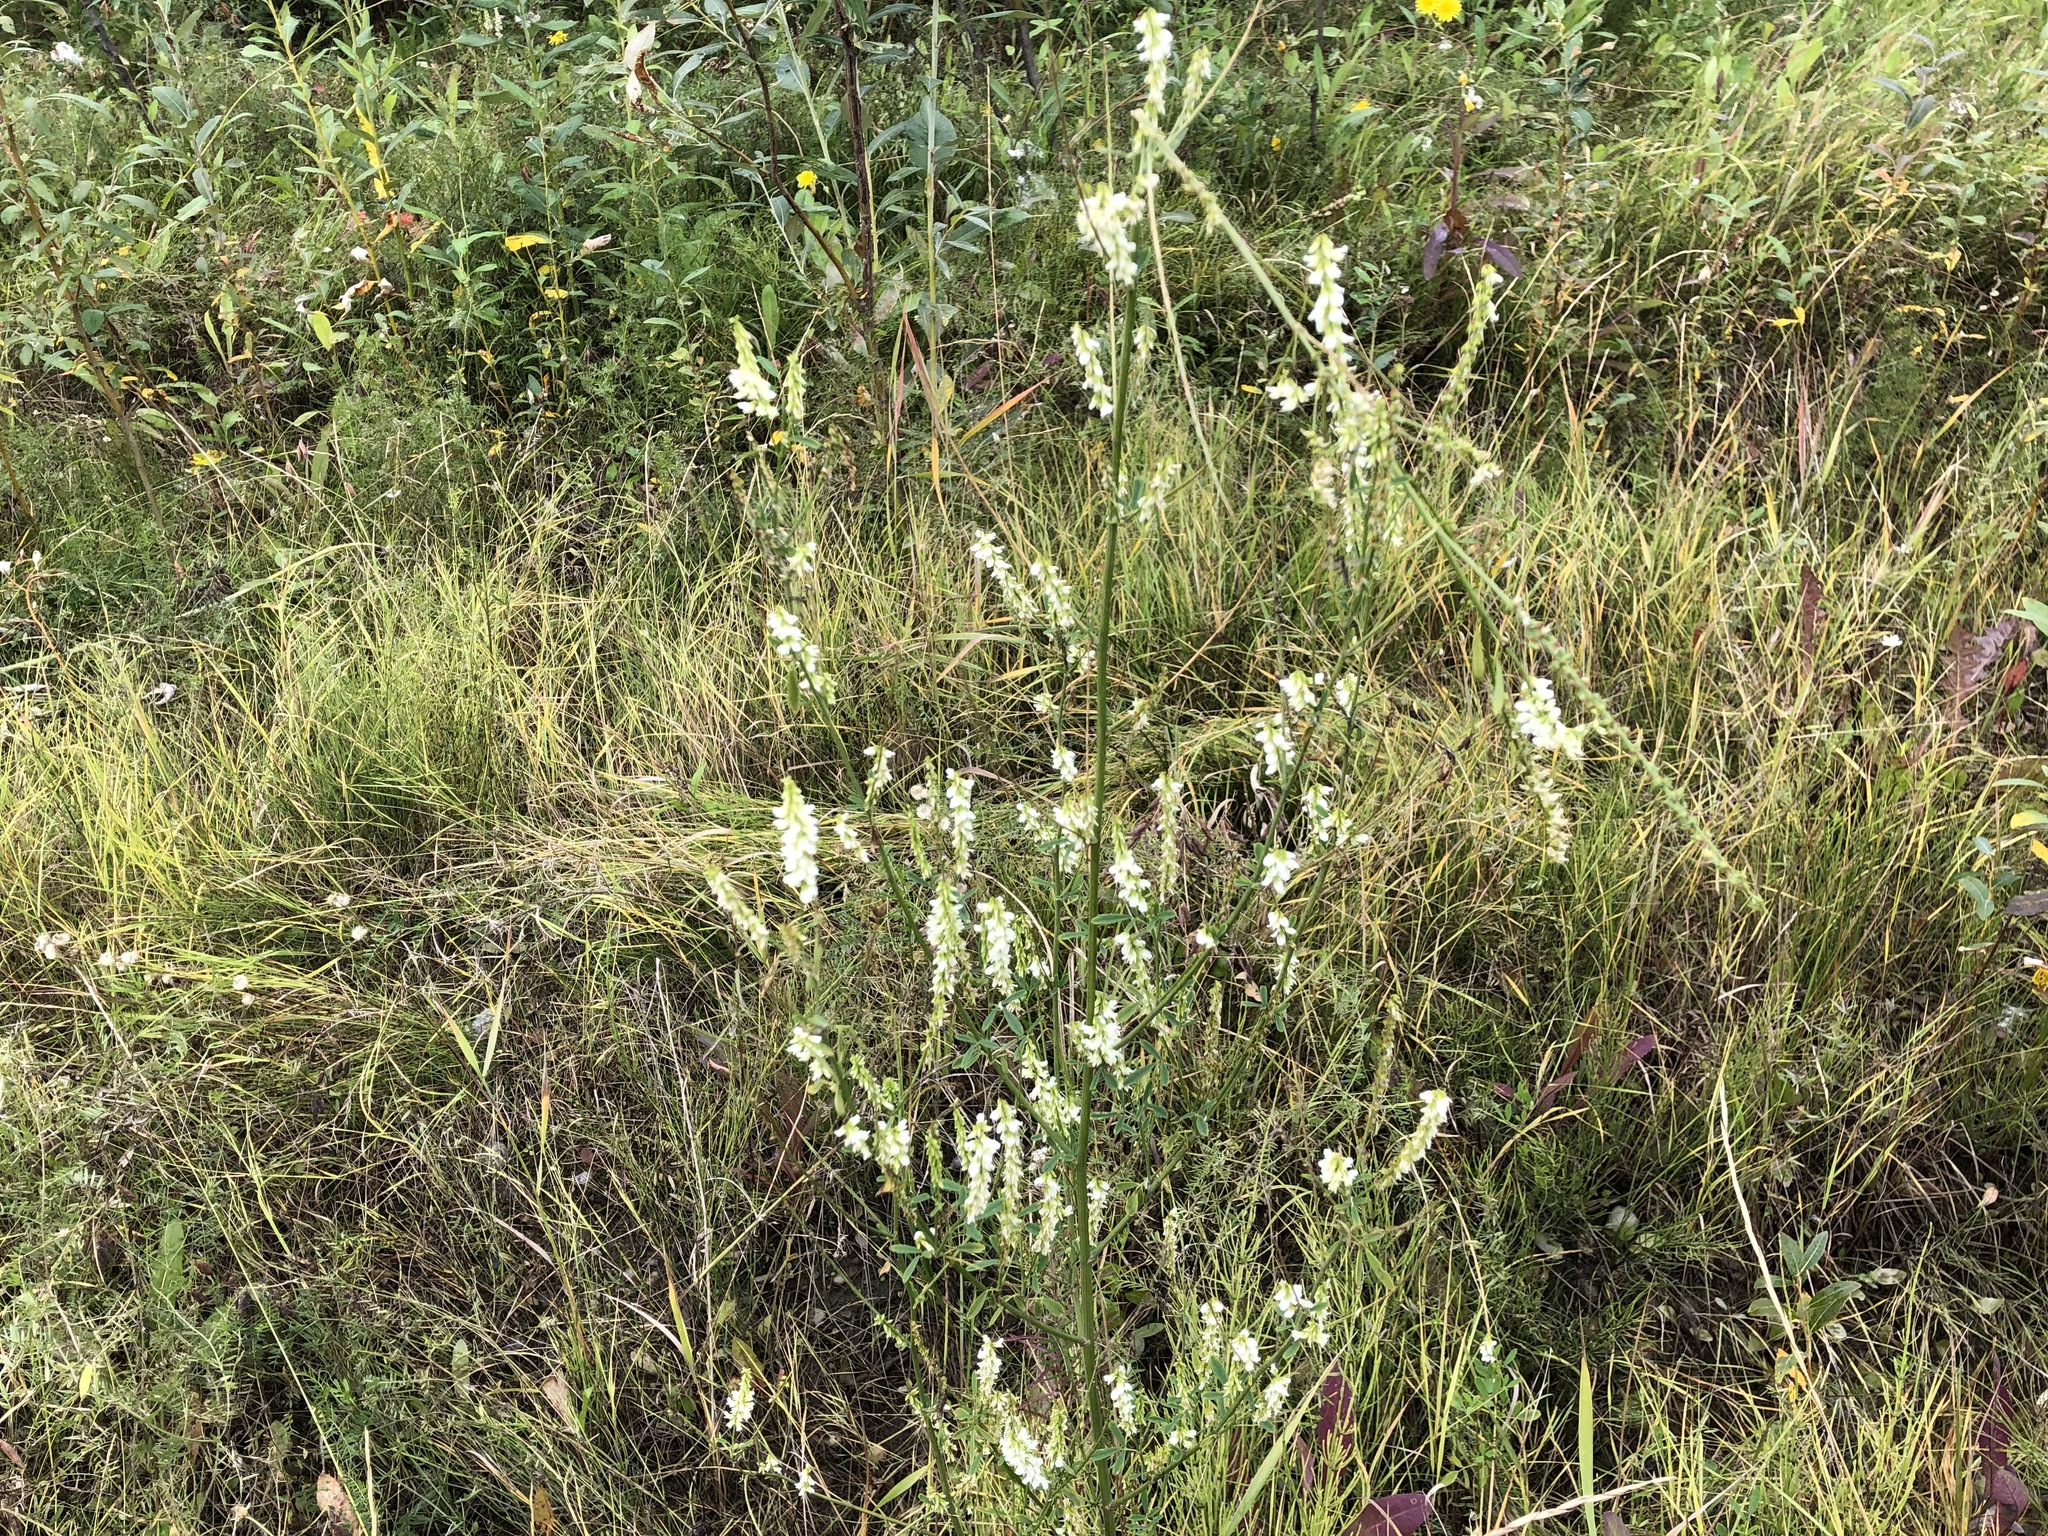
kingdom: Plantae
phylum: Tracheophyta
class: Magnoliopsida
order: Fabales
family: Fabaceae
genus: Melilotus
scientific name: Melilotus albus
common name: White melilot
